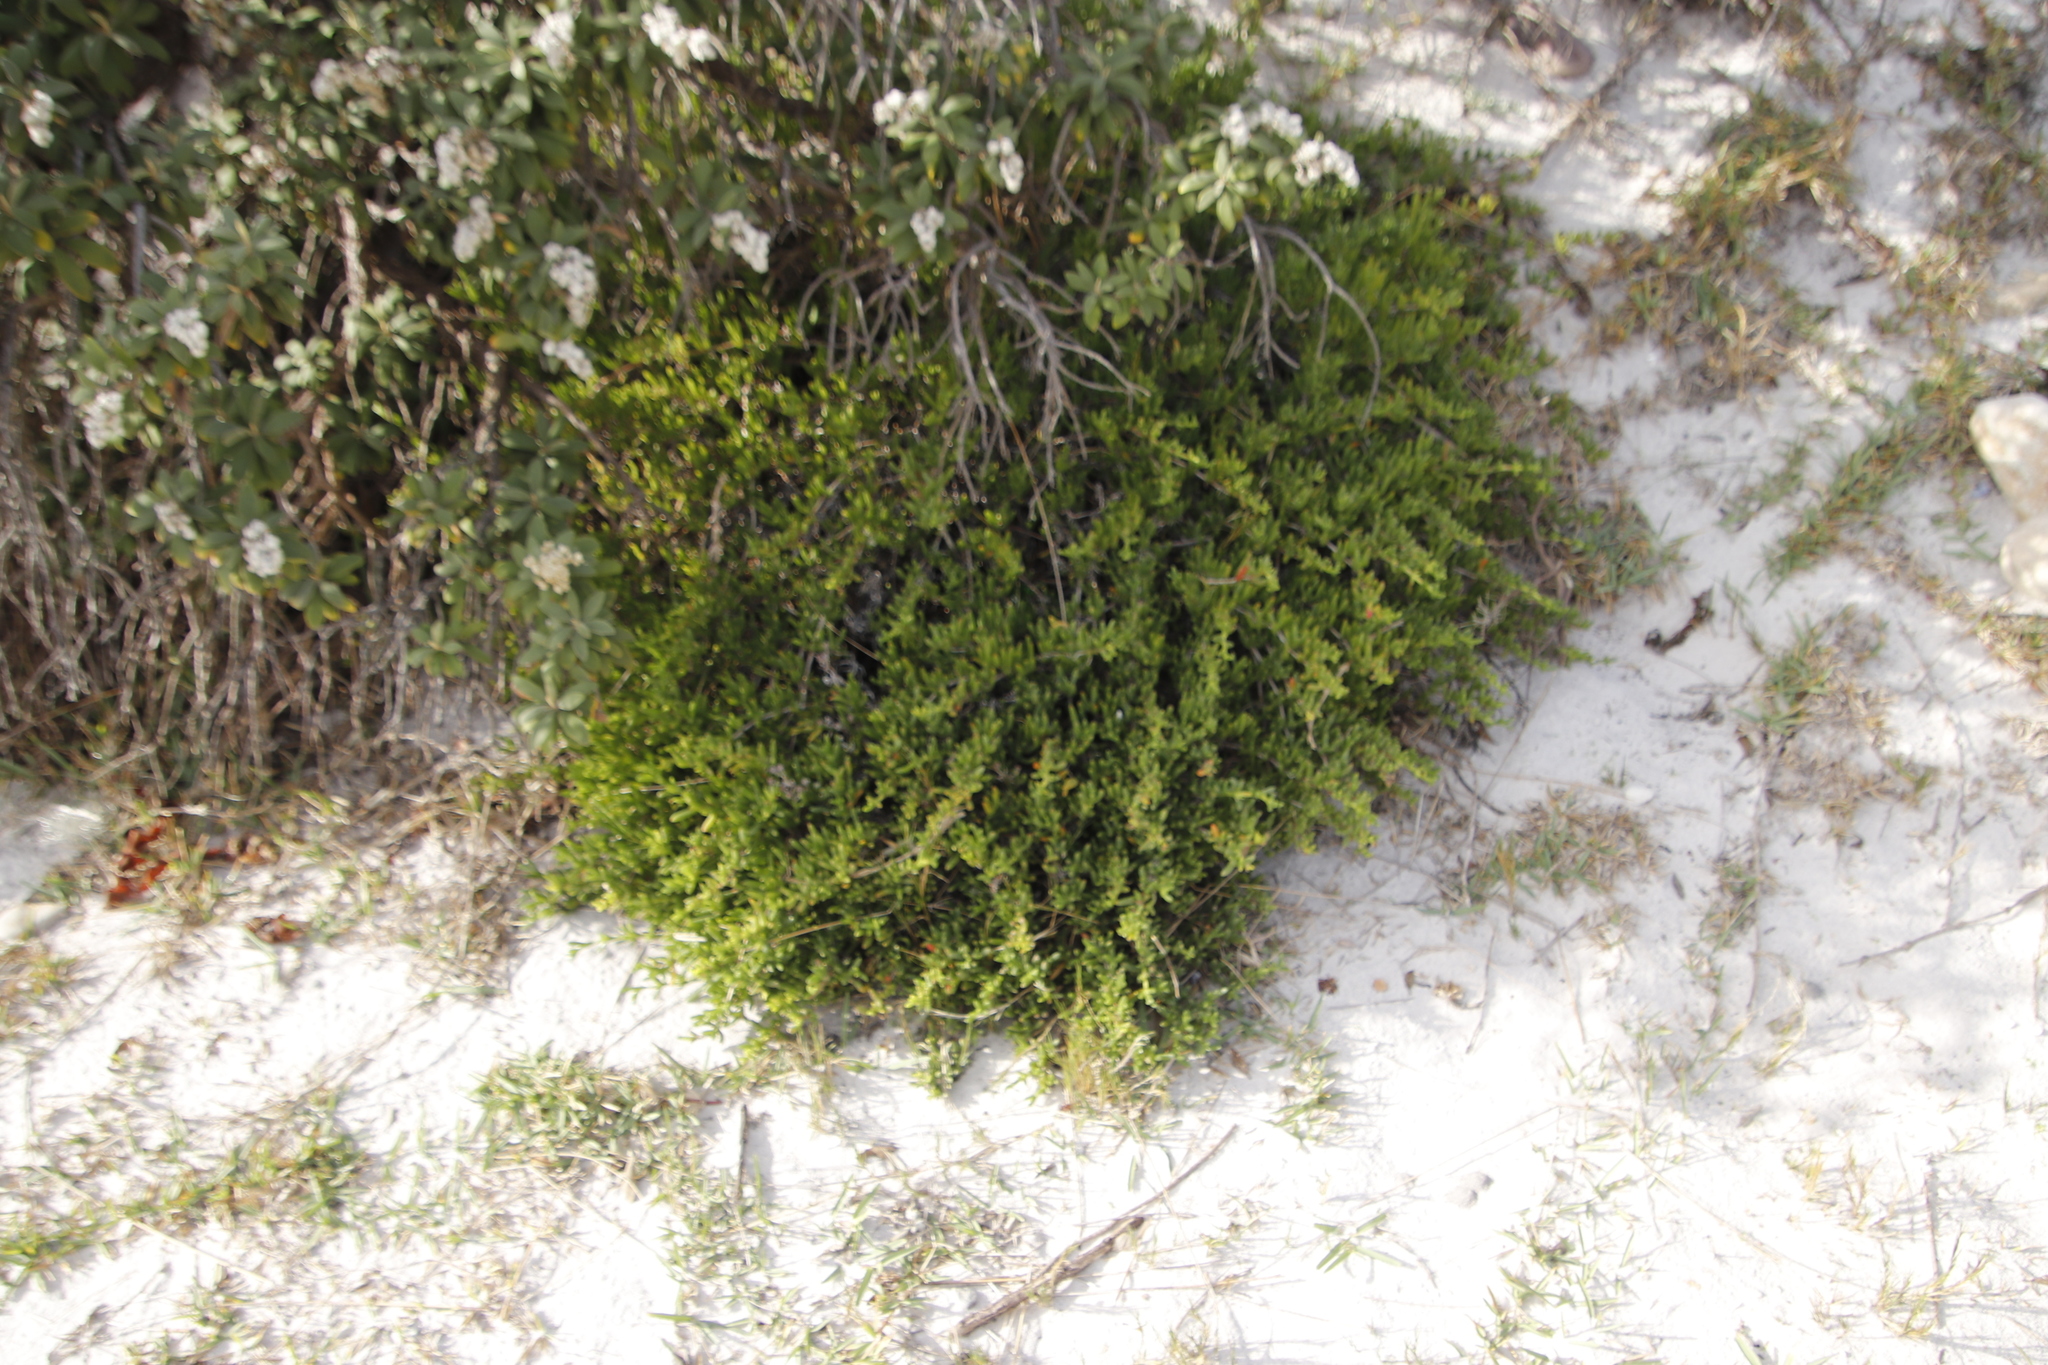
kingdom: Plantae
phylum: Tracheophyta
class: Magnoliopsida
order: Caryophyllales
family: Aizoaceae
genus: Ruschia
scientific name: Ruschia macowanii
